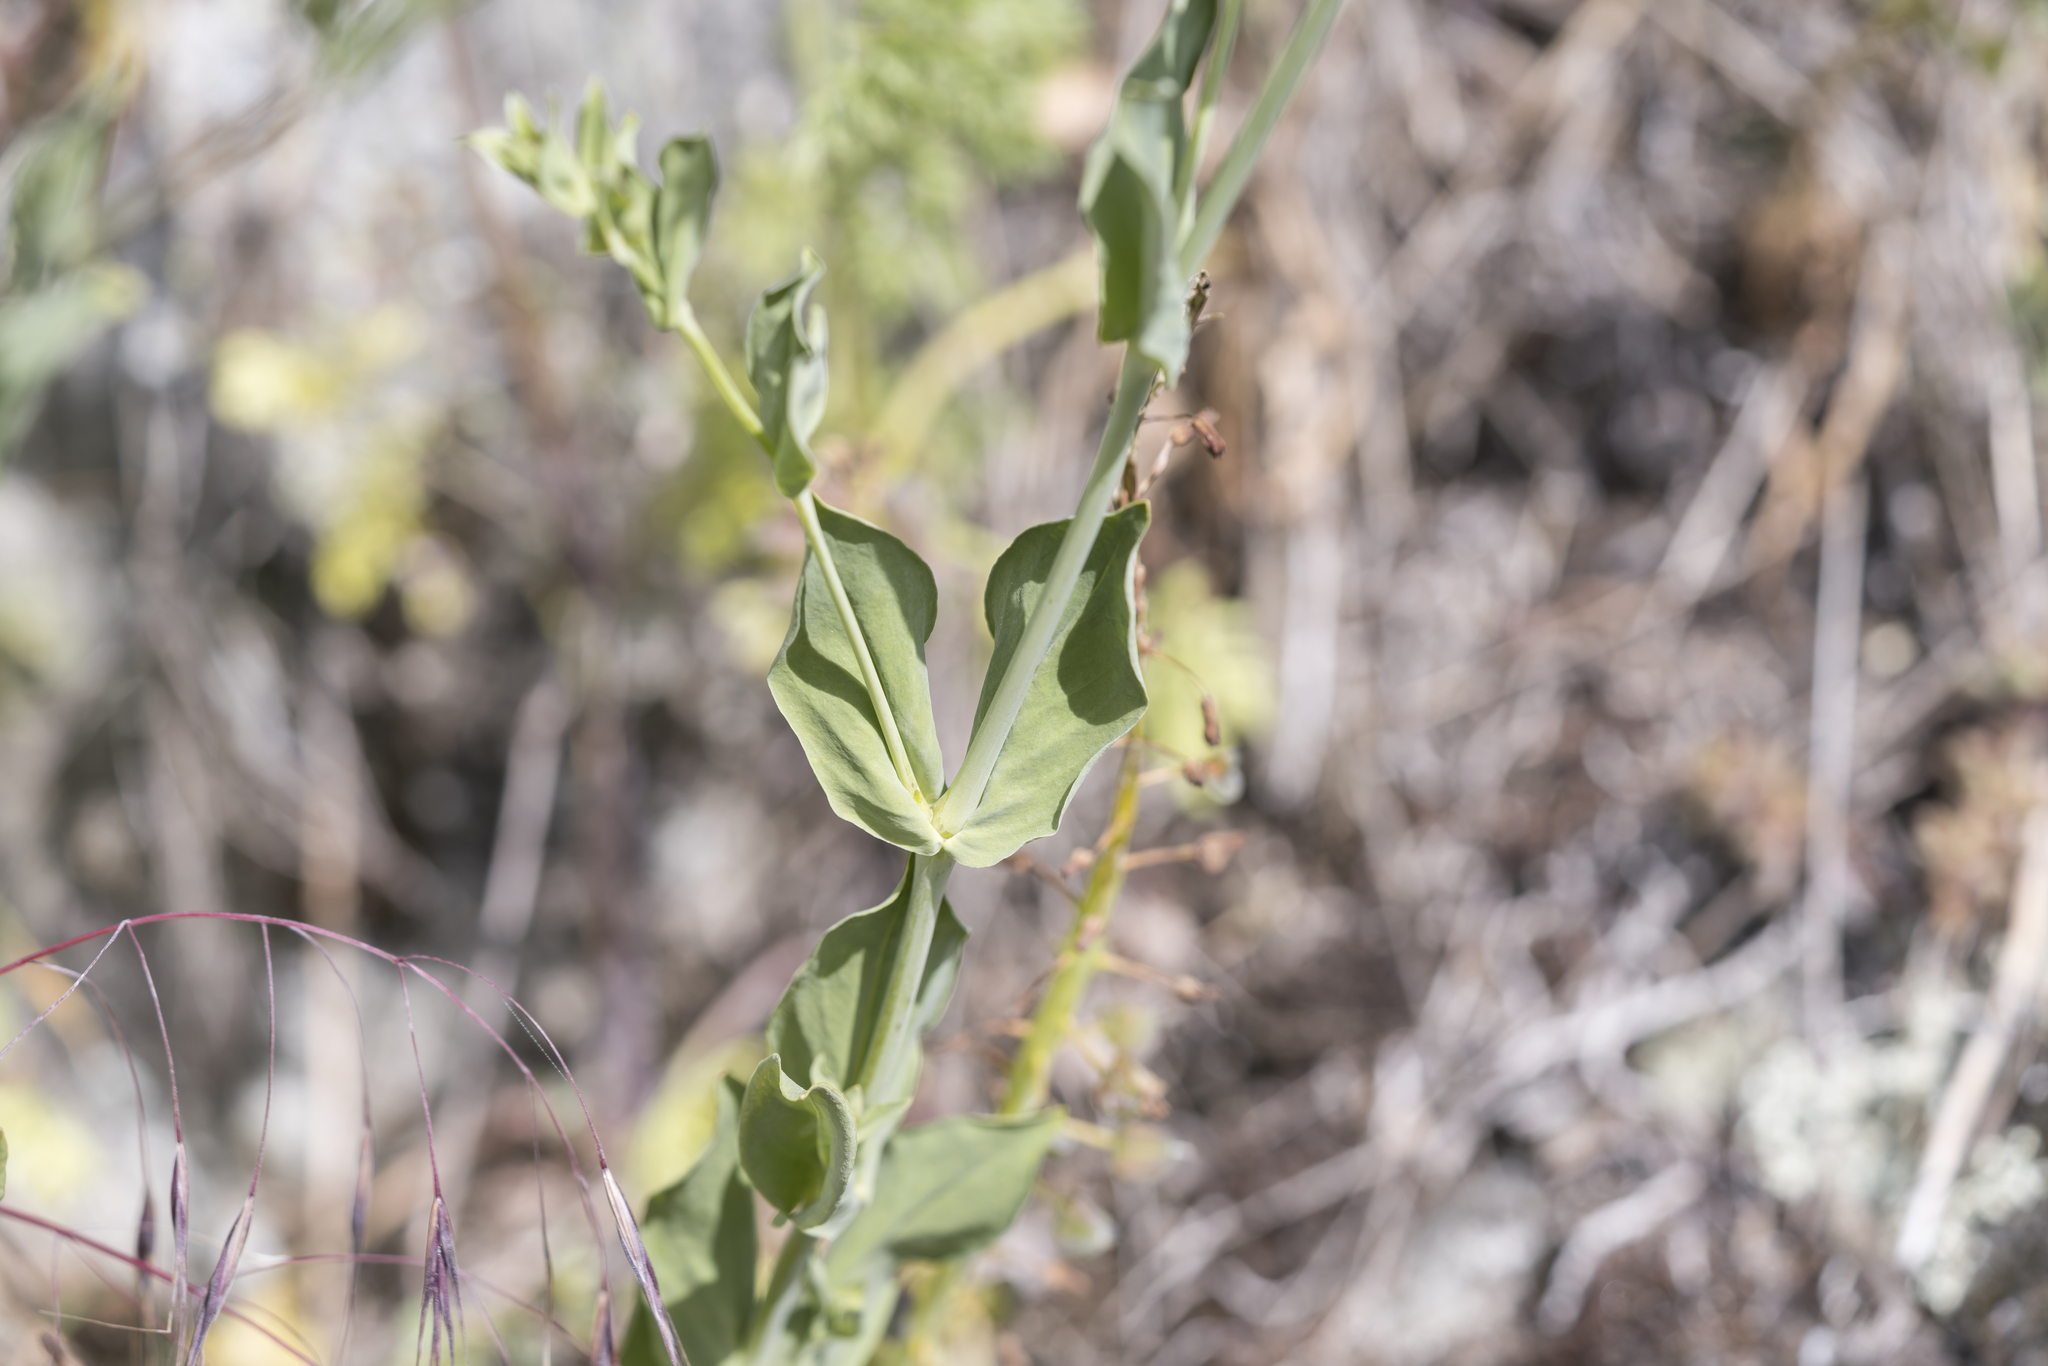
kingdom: Plantae
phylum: Tracheophyta
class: Magnoliopsida
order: Caryophyllales
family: Caryophyllaceae
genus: Atocion
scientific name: Atocion armeria
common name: Sweet william catchfly
